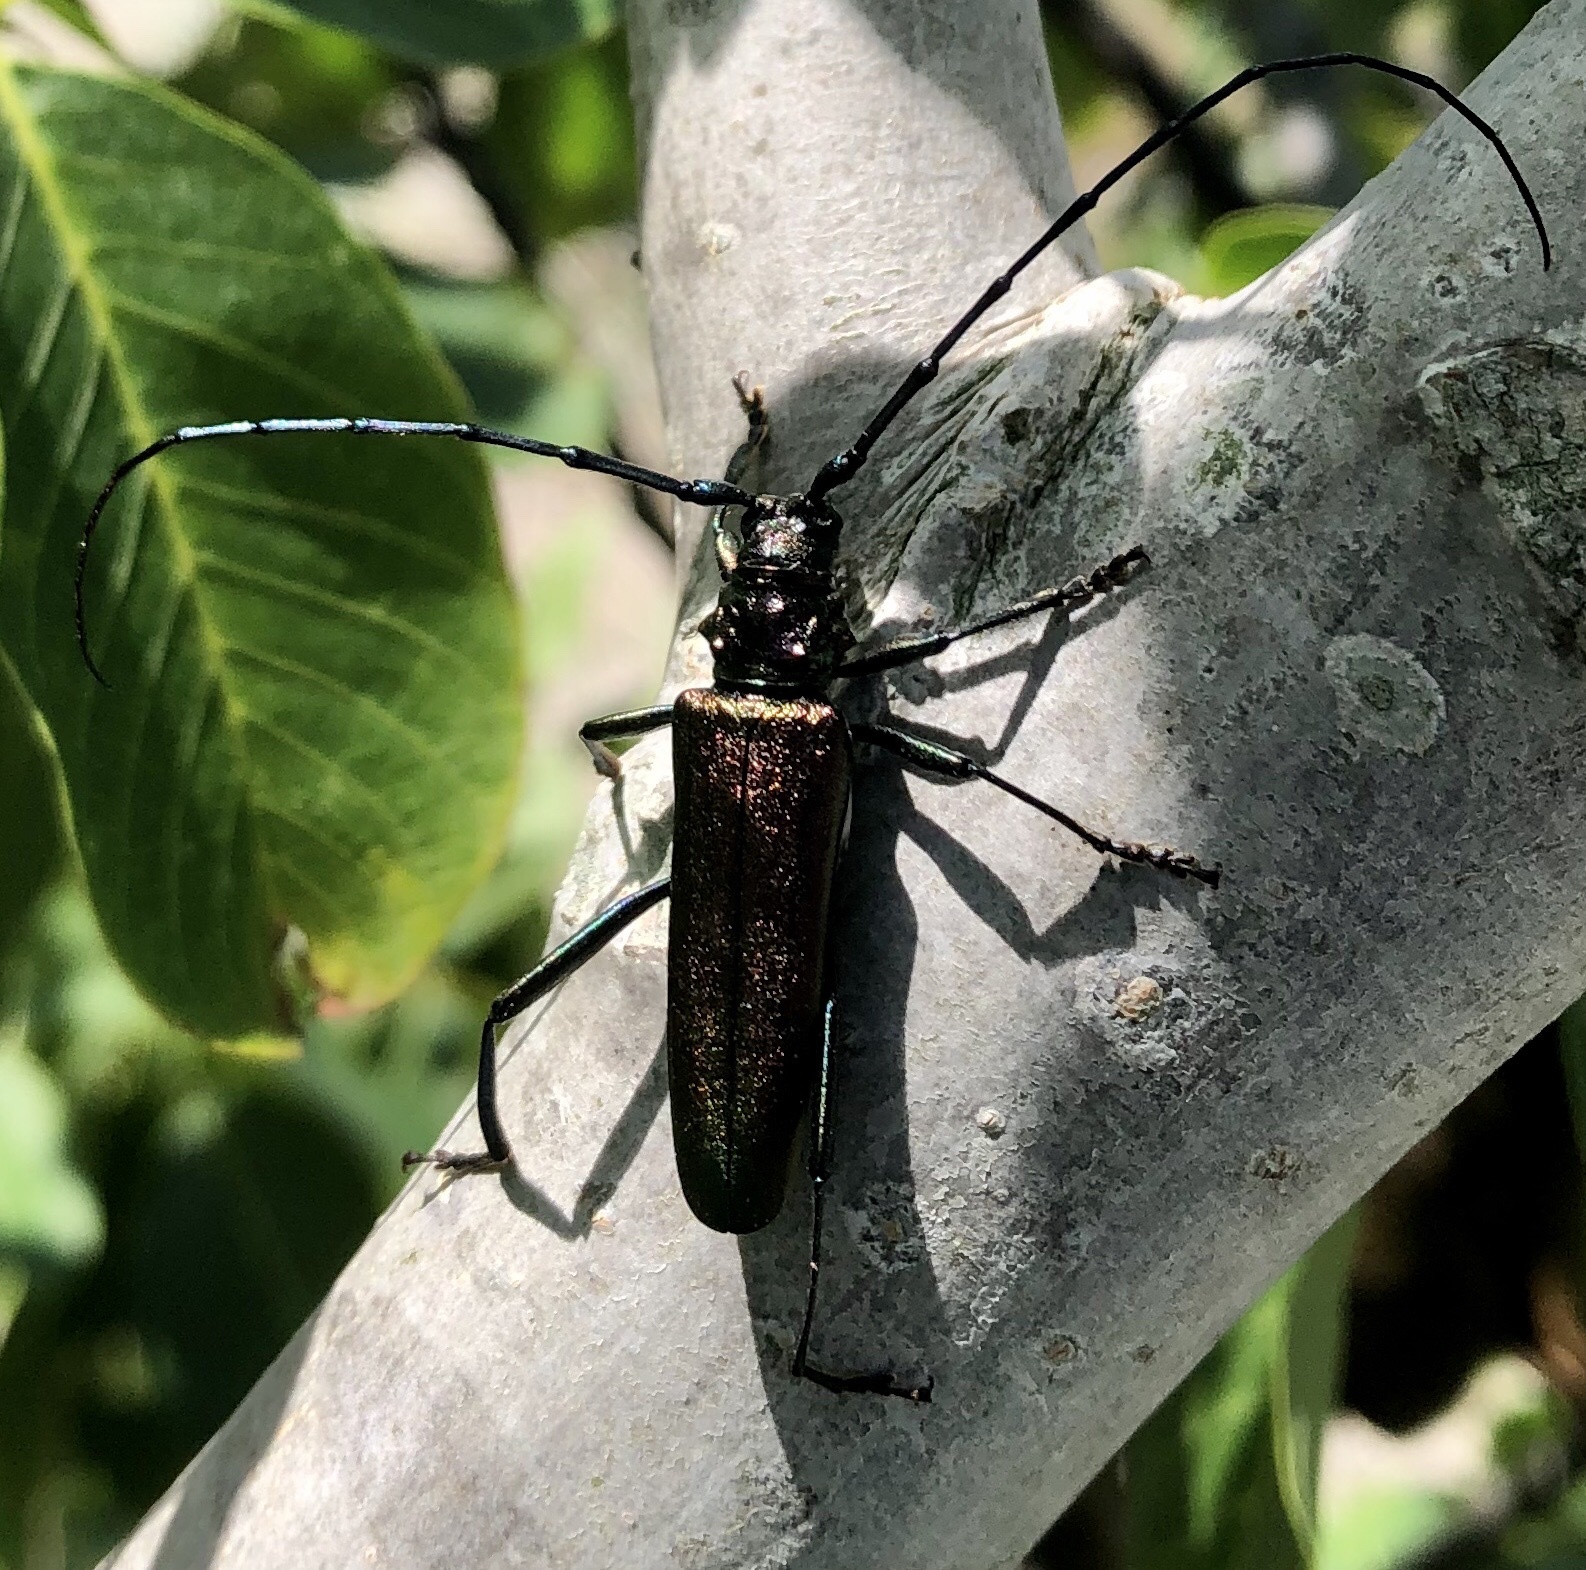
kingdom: Animalia
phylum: Arthropoda
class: Insecta
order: Coleoptera
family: Cerambycidae
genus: Aromia
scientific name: Aromia moschata
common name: Musk beetle
